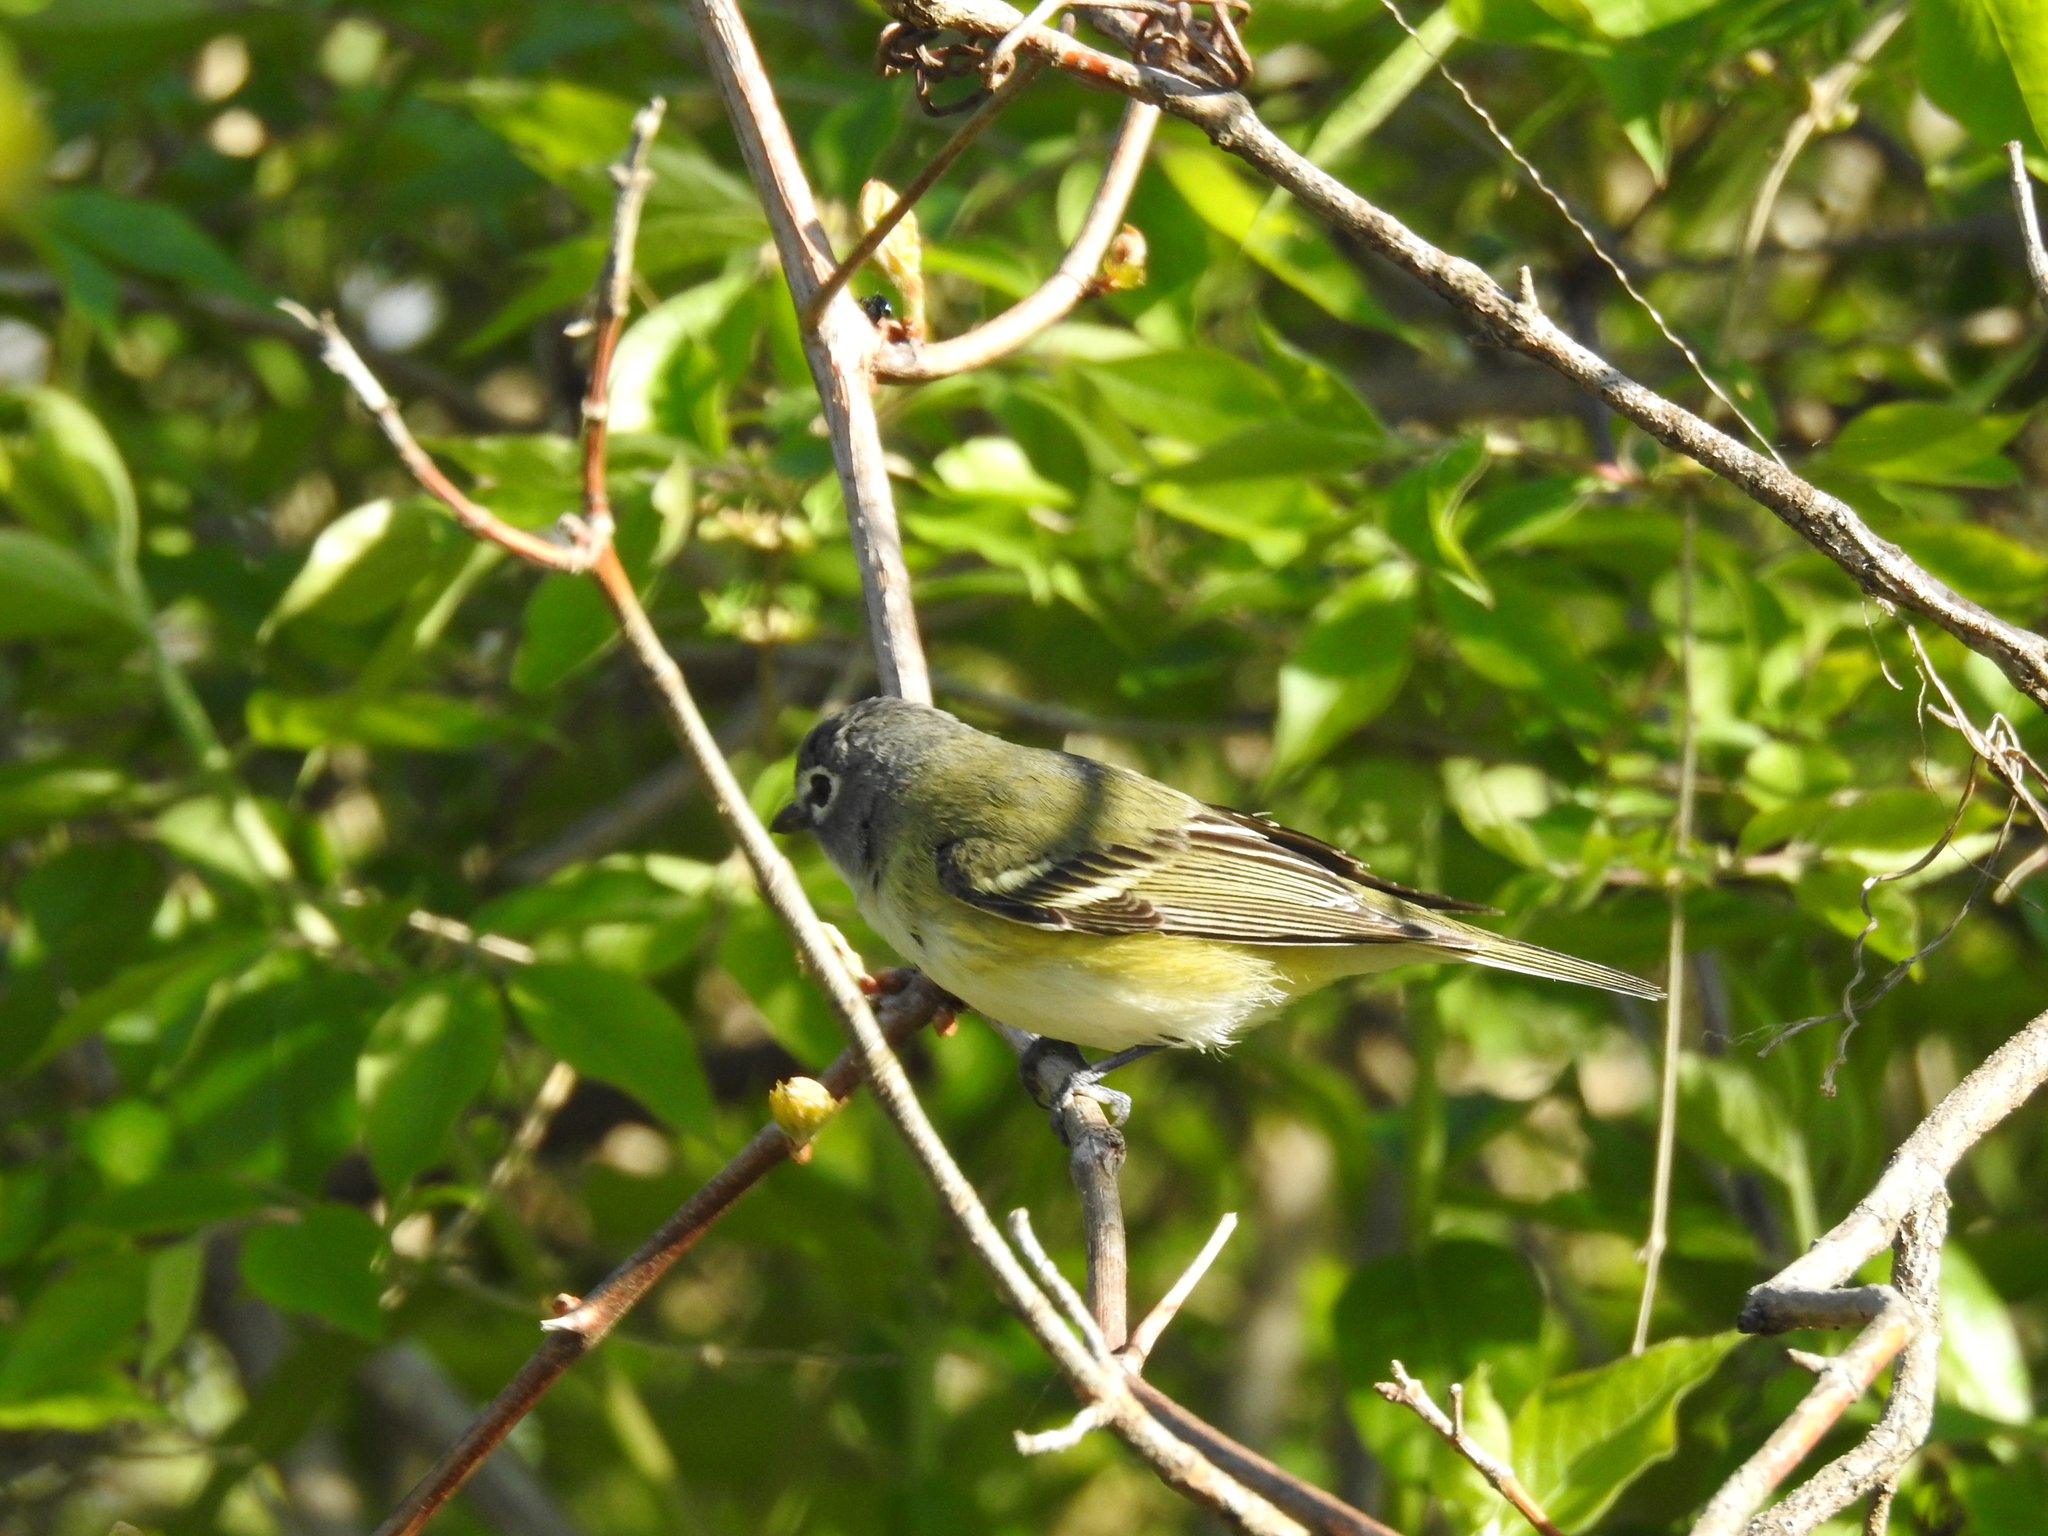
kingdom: Animalia
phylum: Chordata
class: Aves
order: Passeriformes
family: Vireonidae
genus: Vireo
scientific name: Vireo solitarius
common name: Blue-headed vireo
